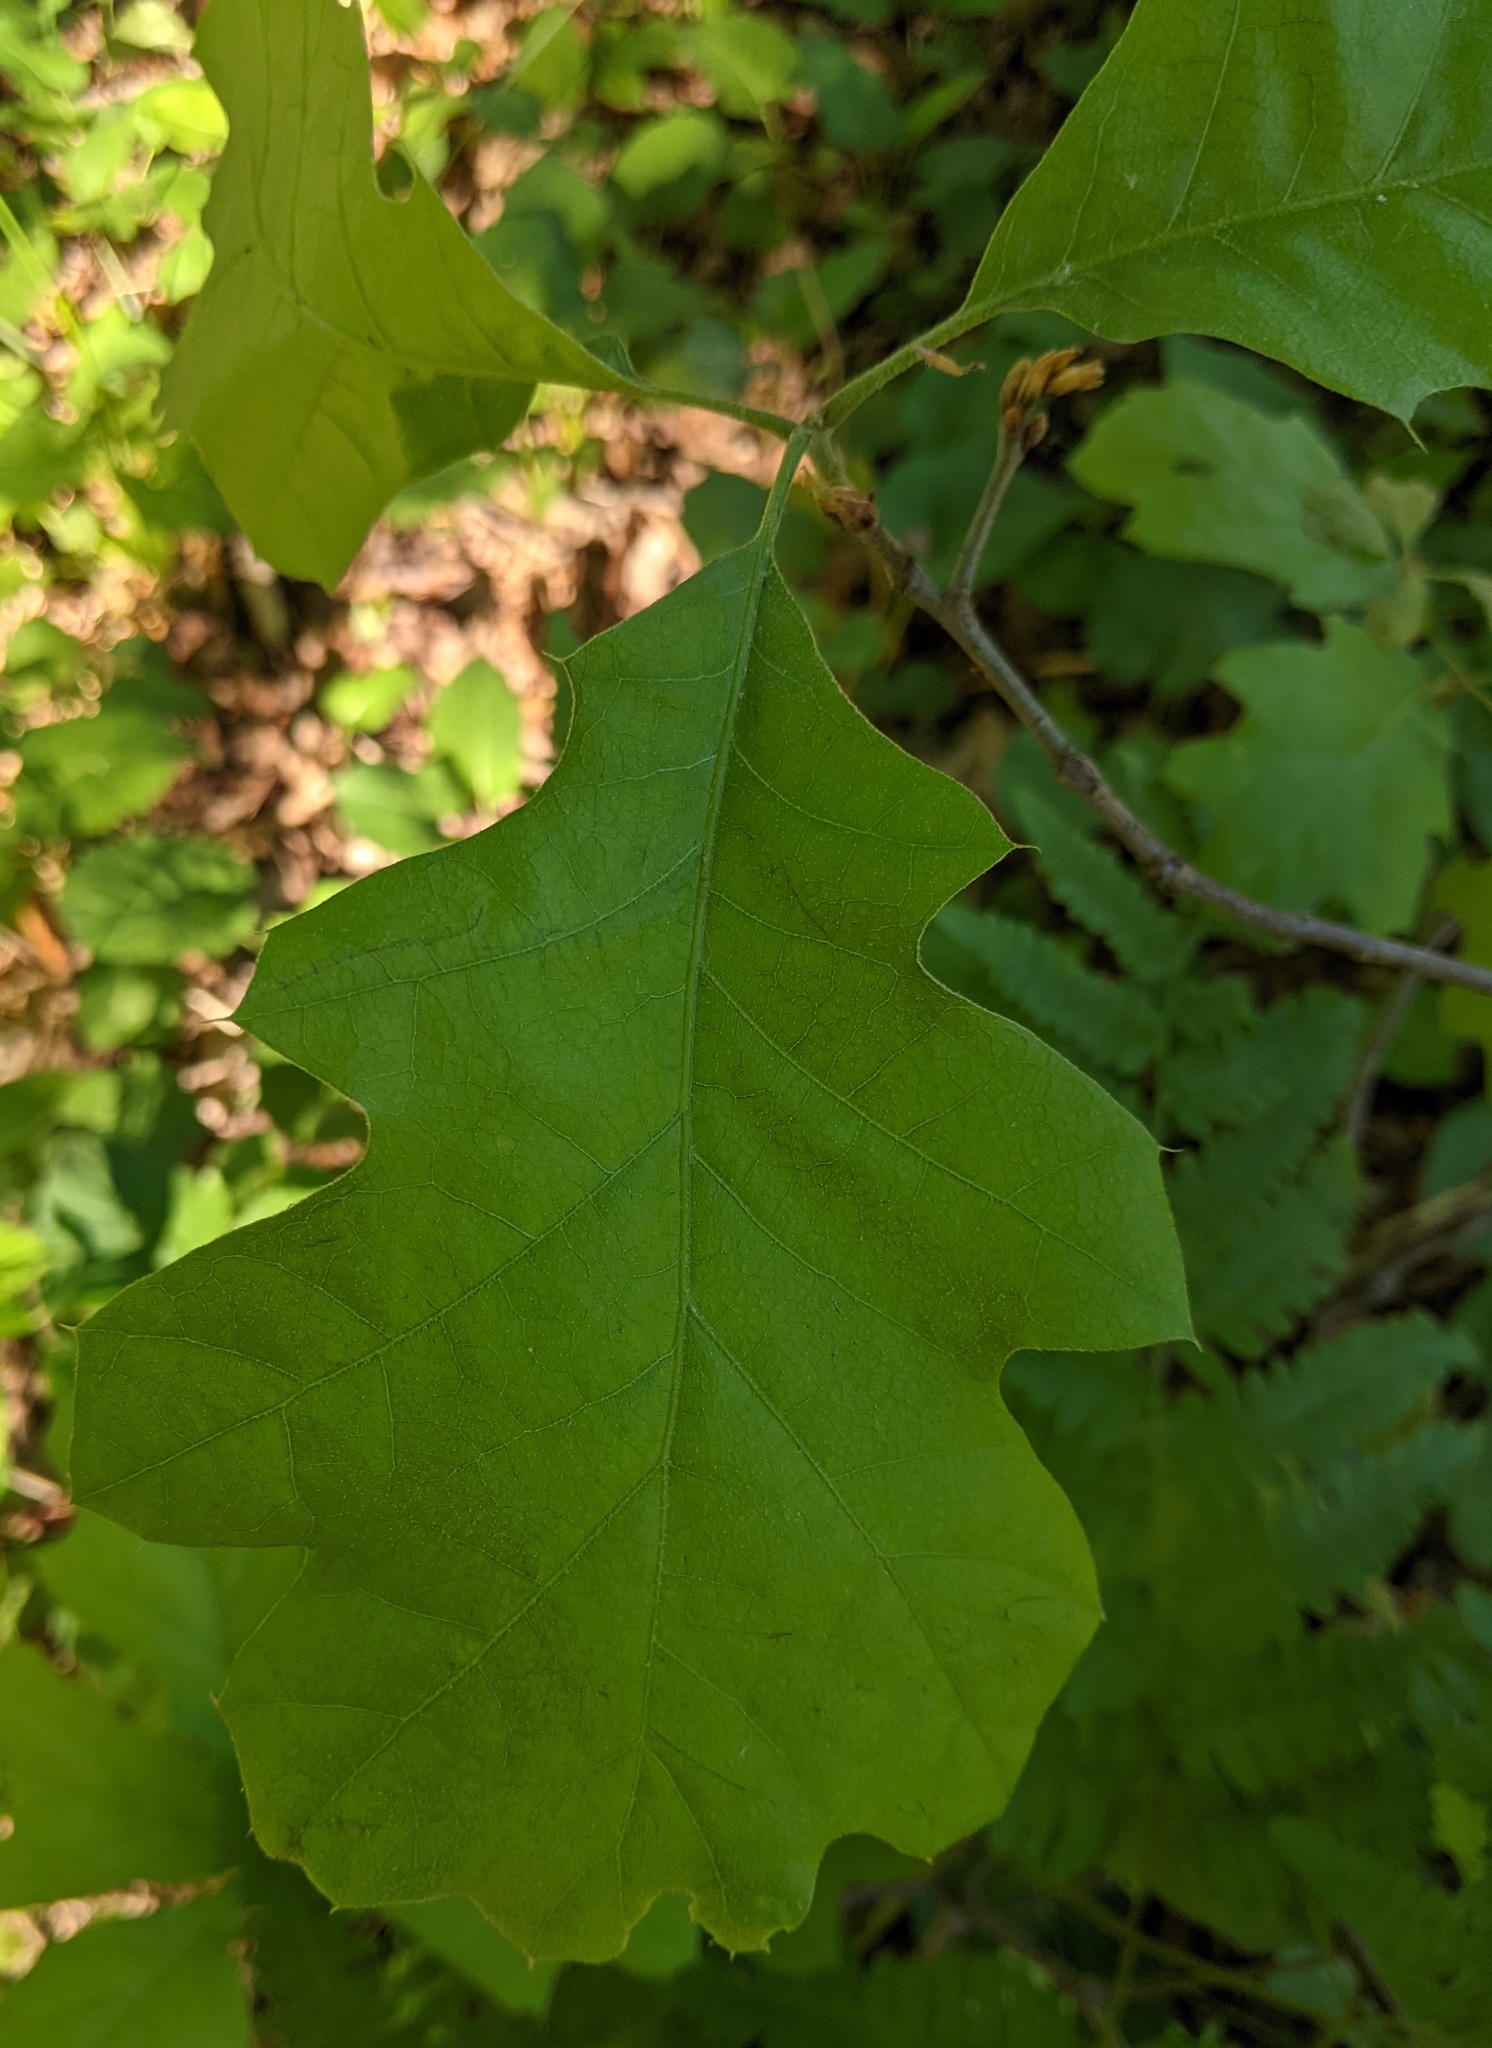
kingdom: Plantae
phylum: Tracheophyta
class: Magnoliopsida
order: Fagales
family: Fagaceae
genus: Quercus
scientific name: Quercus velutina
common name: Black oak
